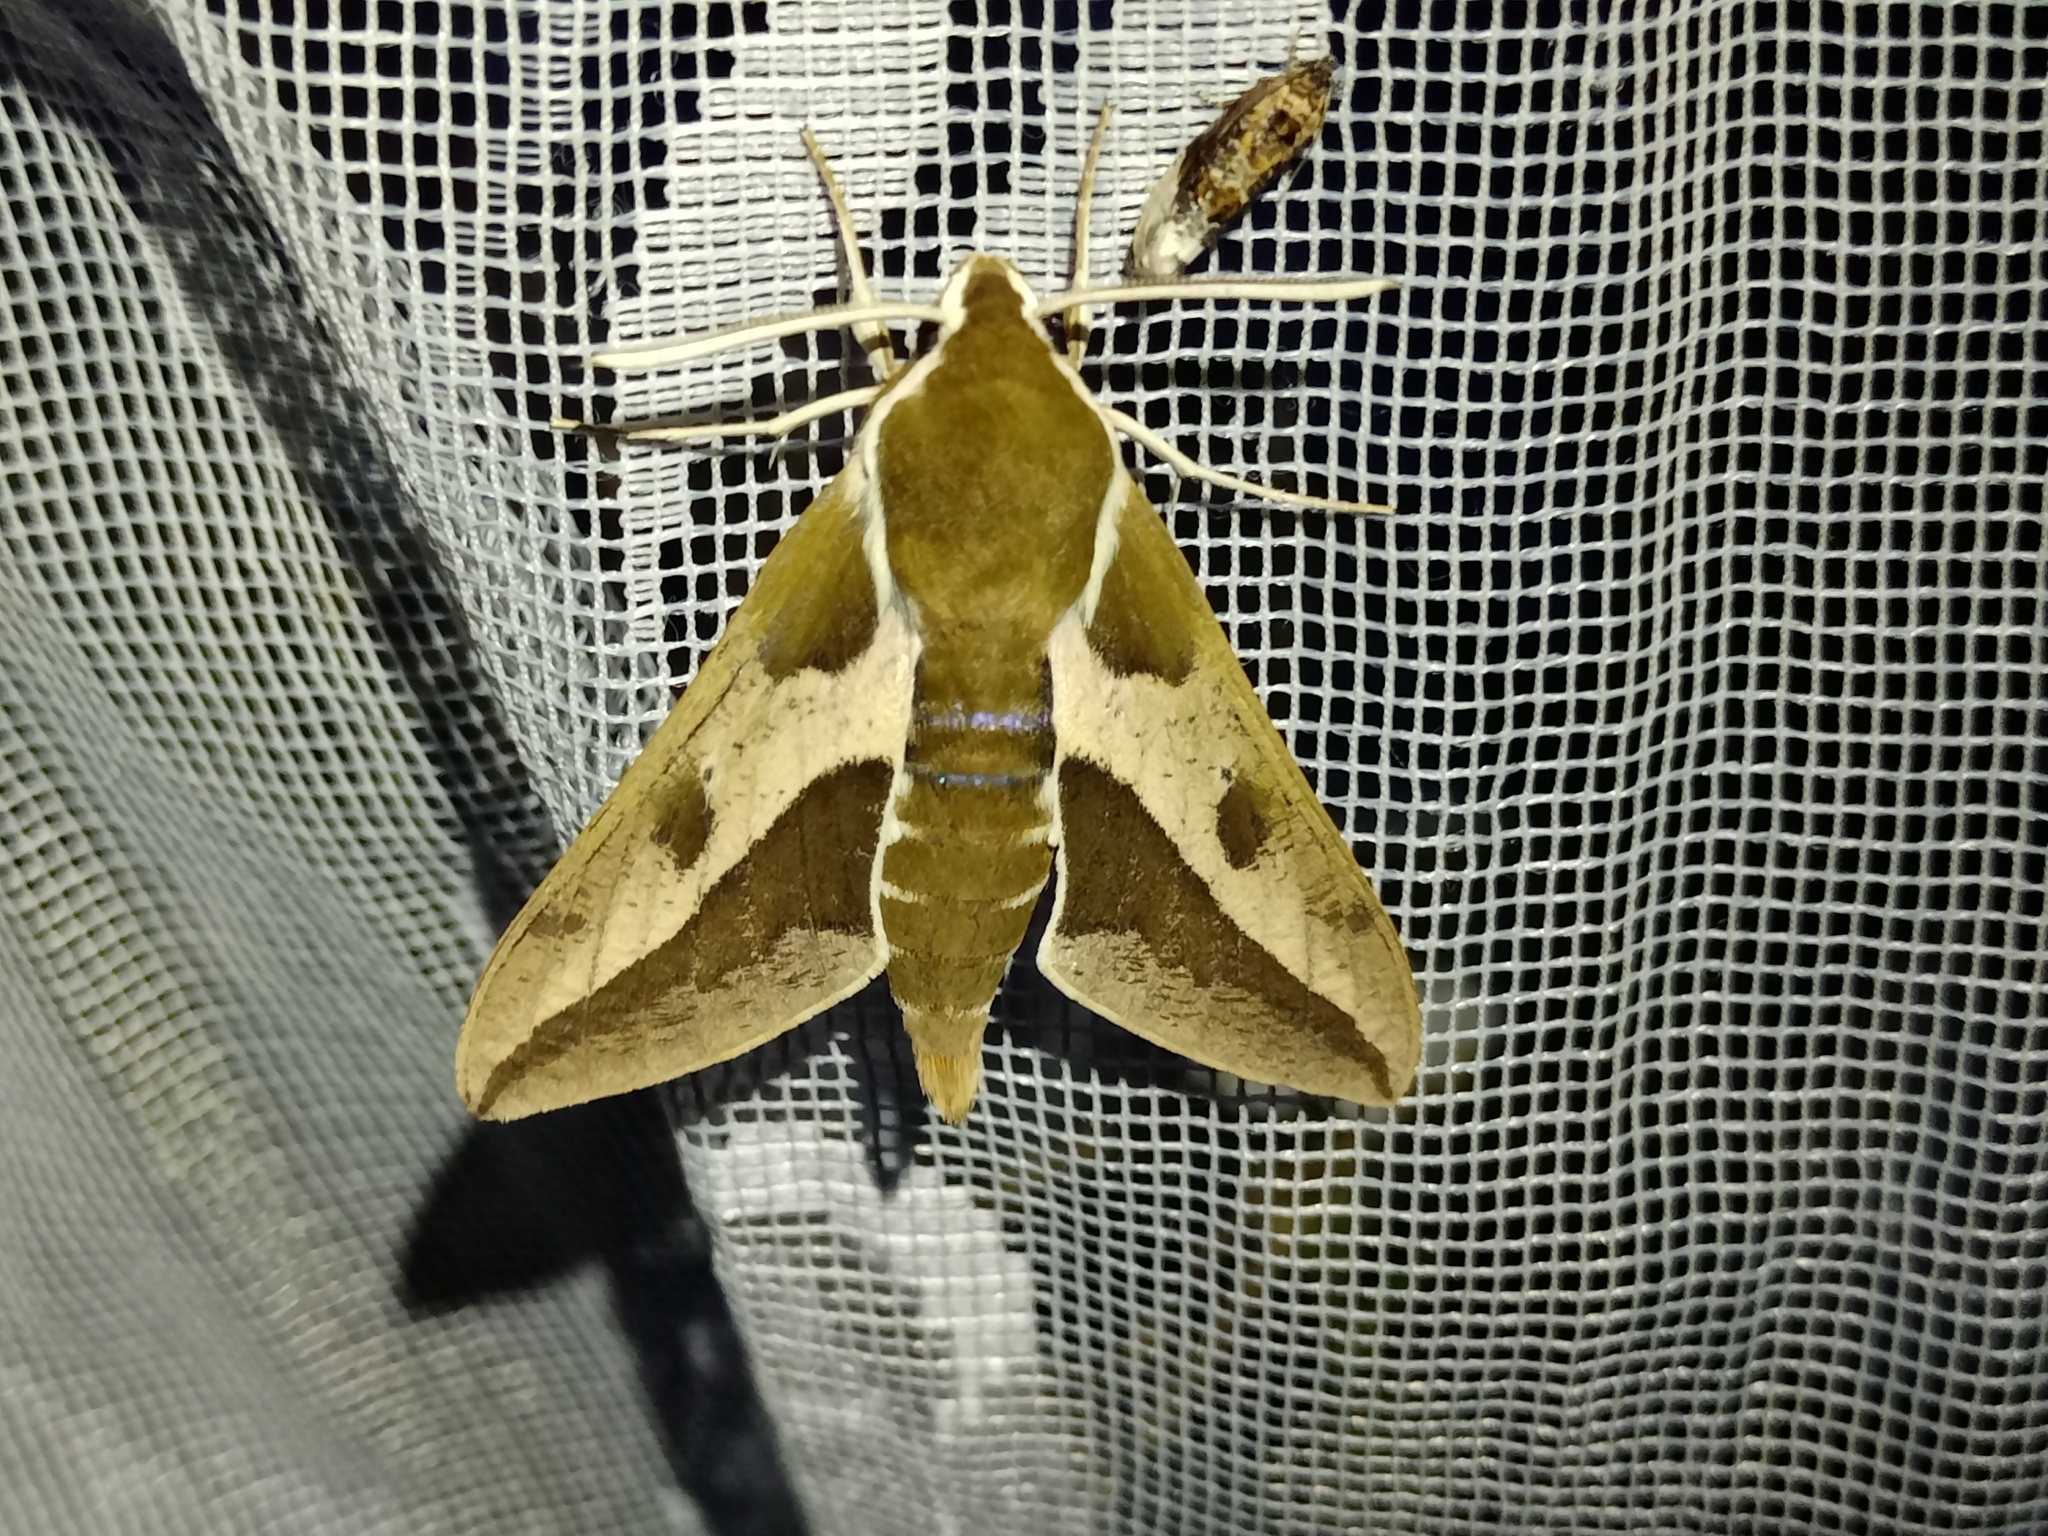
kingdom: Animalia
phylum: Arthropoda
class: Insecta
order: Lepidoptera
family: Sphingidae
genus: Hyles
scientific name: Hyles euphorbiae
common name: Spurge hawk-moth
